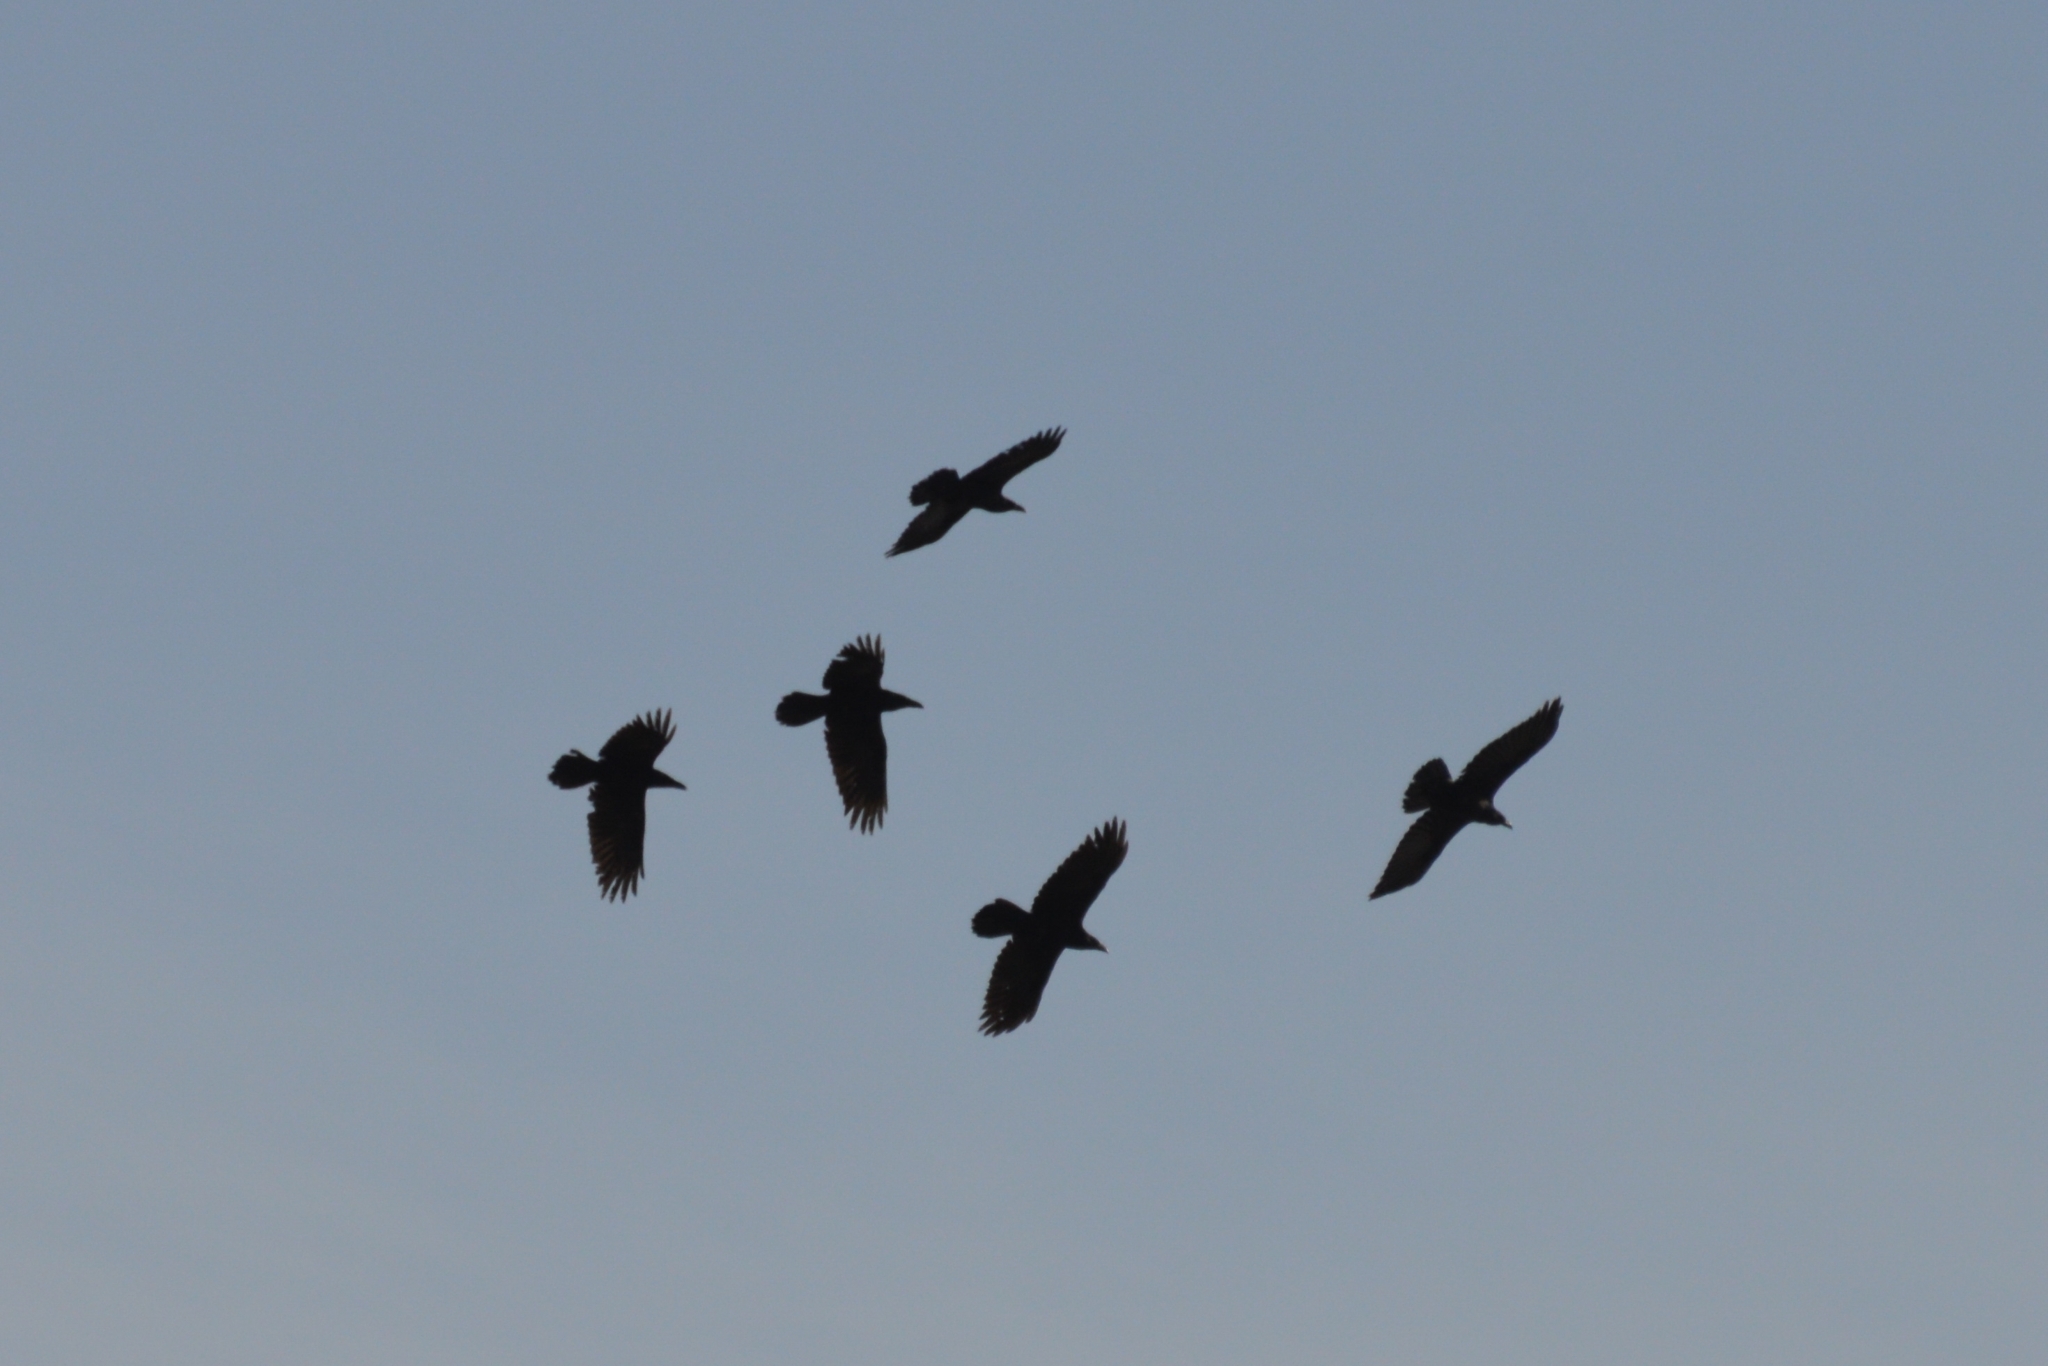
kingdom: Animalia
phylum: Chordata
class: Aves
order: Passeriformes
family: Corvidae
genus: Corvus
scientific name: Corvus corax
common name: Common raven
